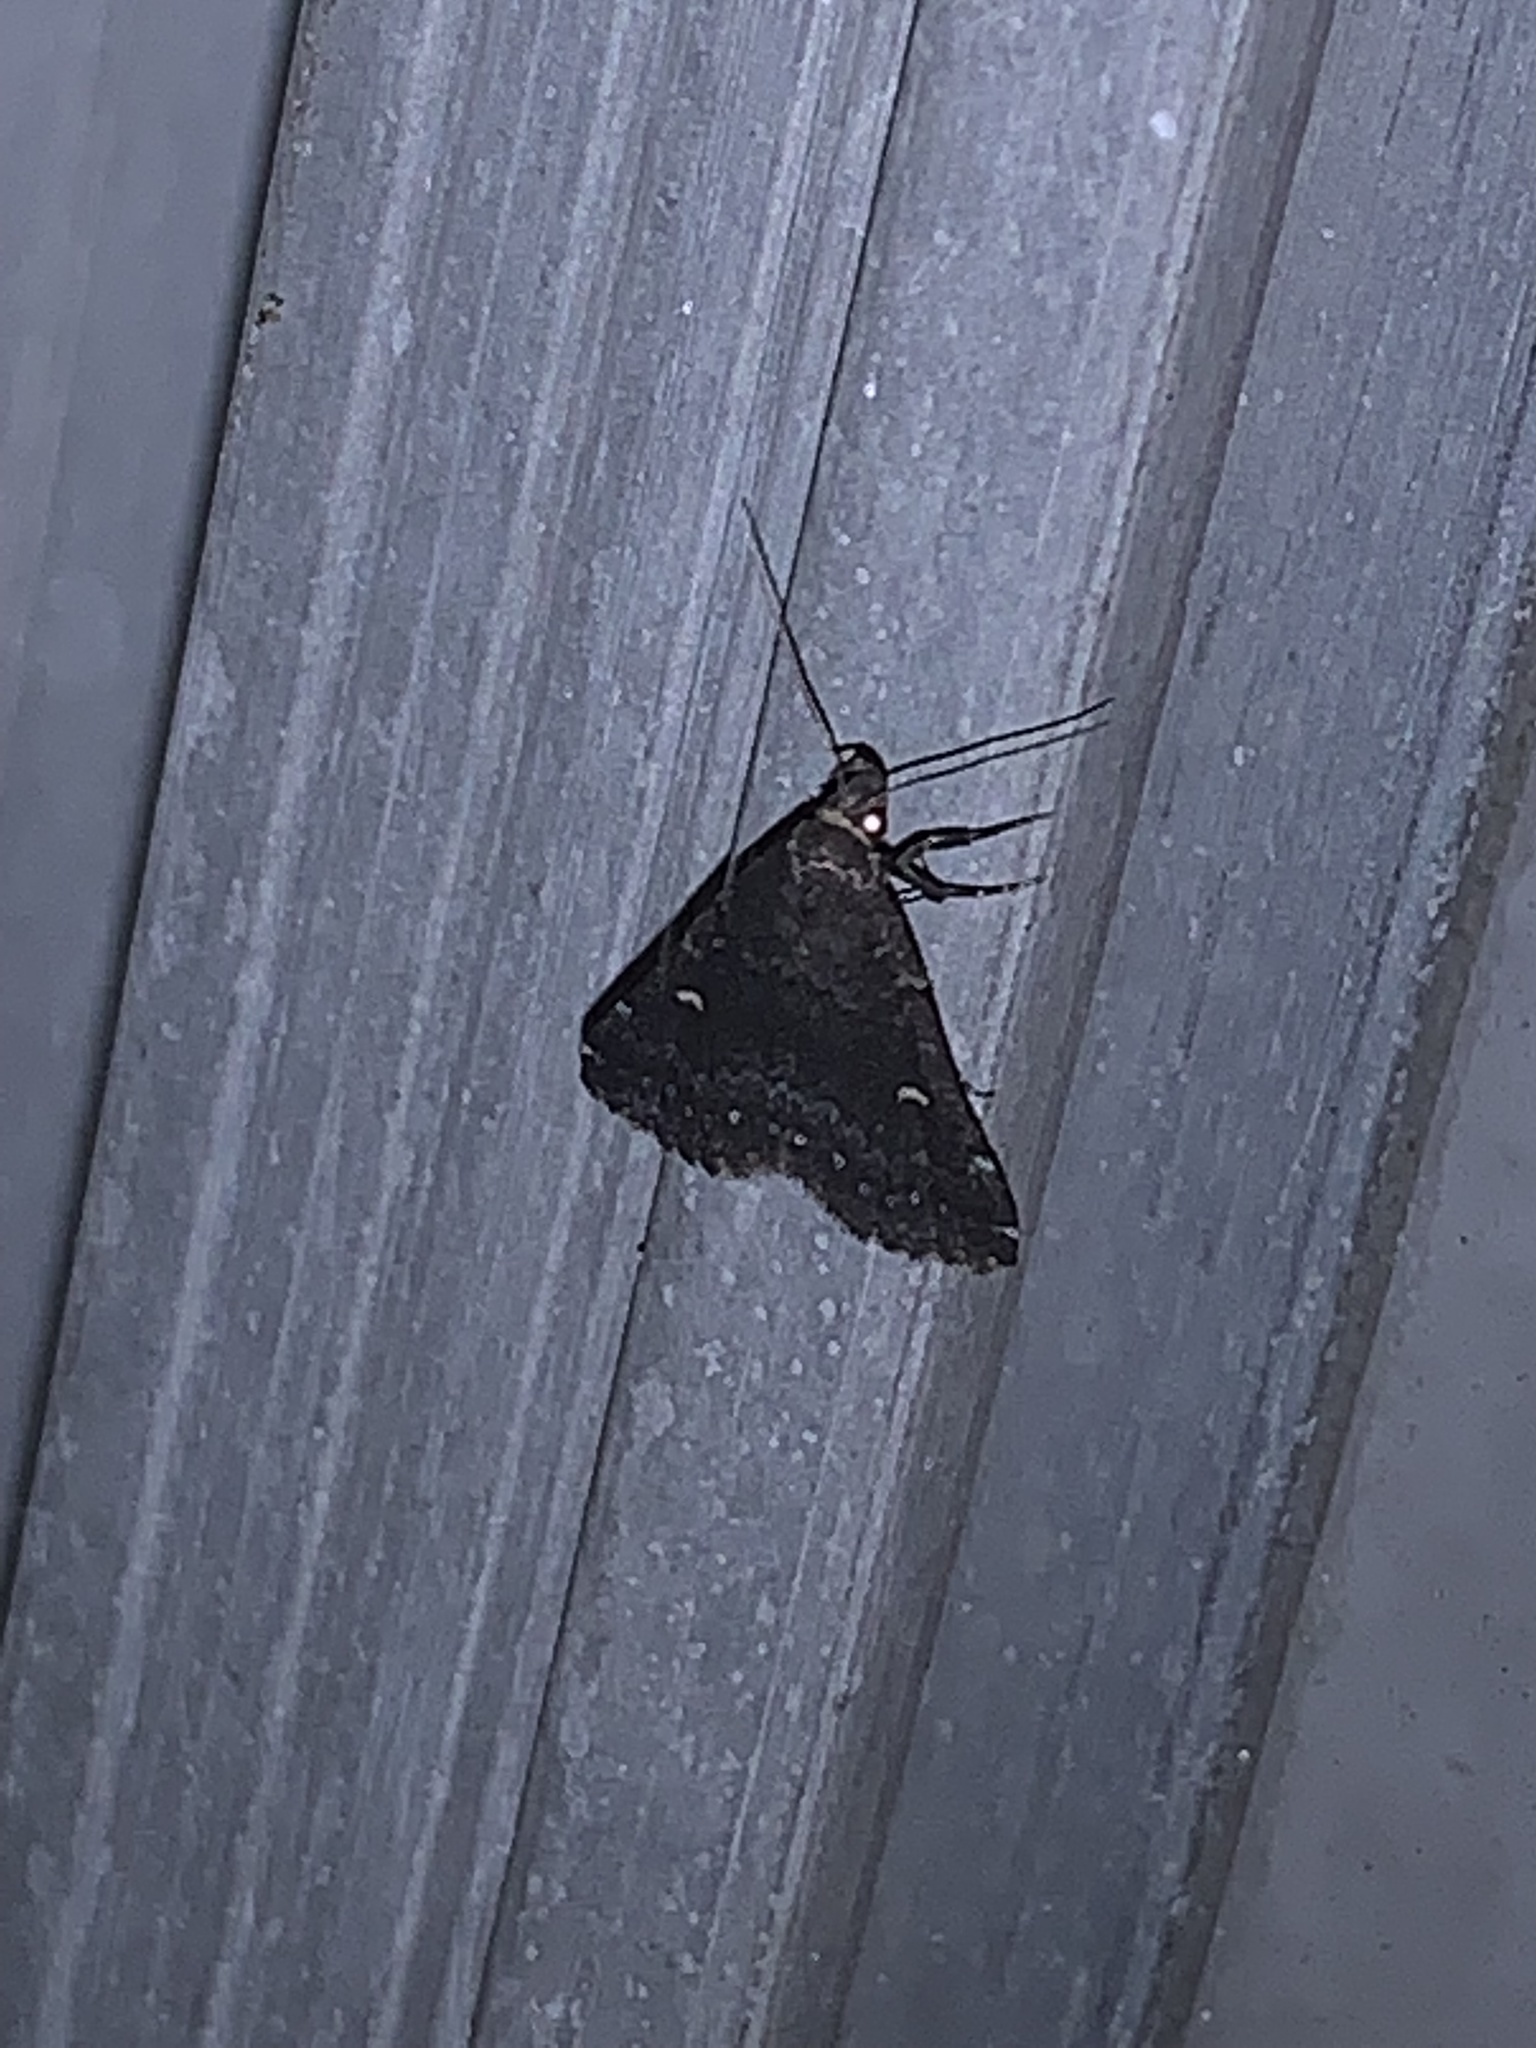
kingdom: Animalia
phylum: Arthropoda
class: Insecta
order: Lepidoptera
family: Erebidae
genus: Tetanolita
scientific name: Tetanolita mynesalis
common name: Smoky tetanolita moth
